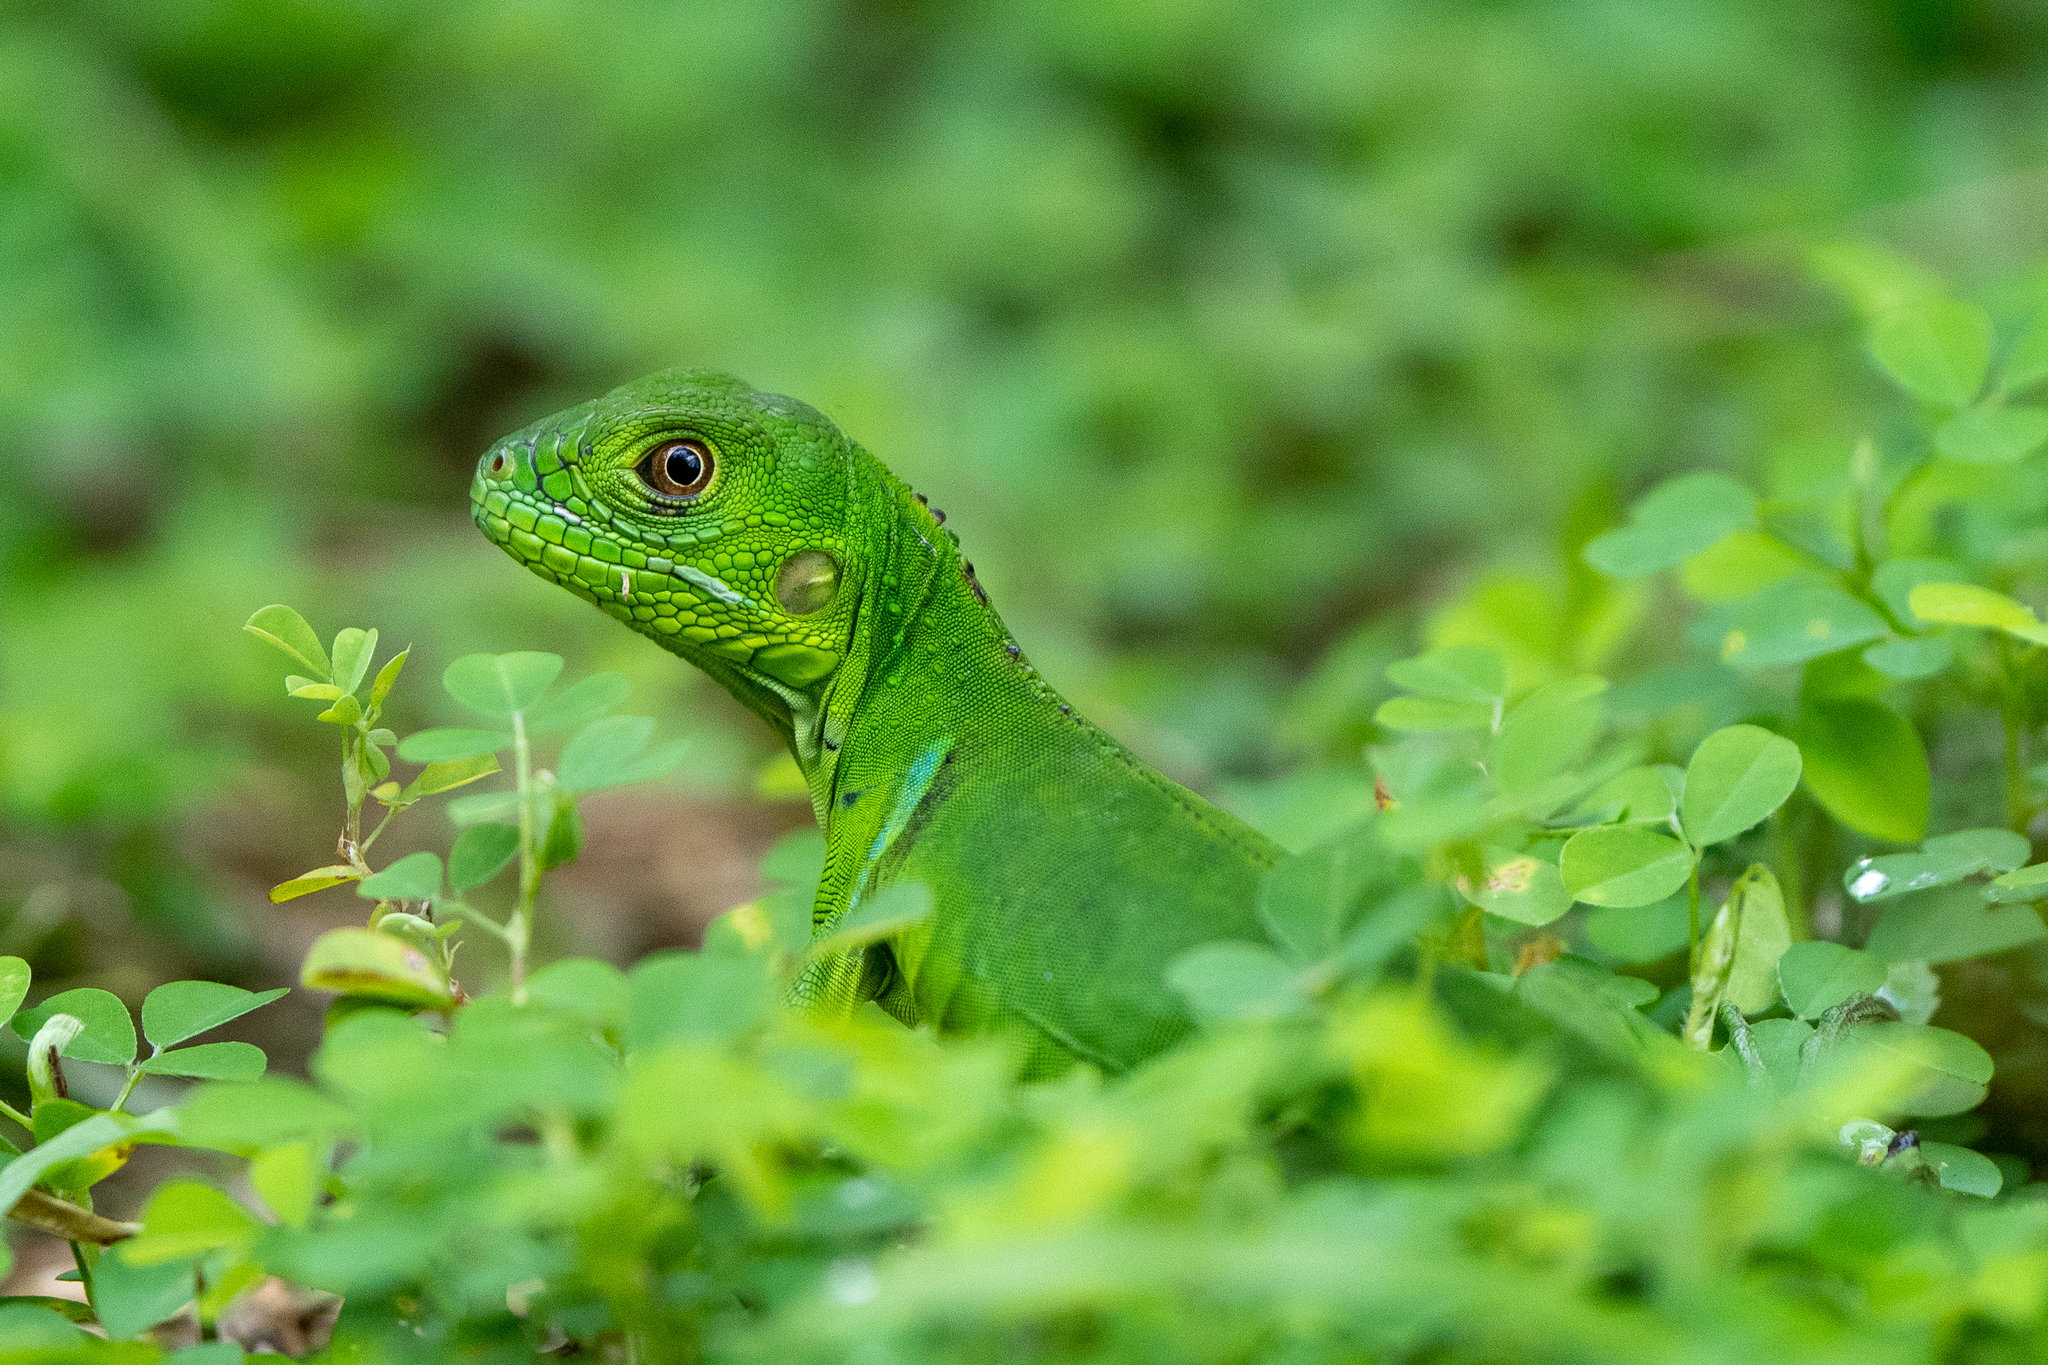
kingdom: Animalia
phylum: Chordata
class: Squamata
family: Iguanidae
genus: Iguana
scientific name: Iguana iguana
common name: Green iguana
